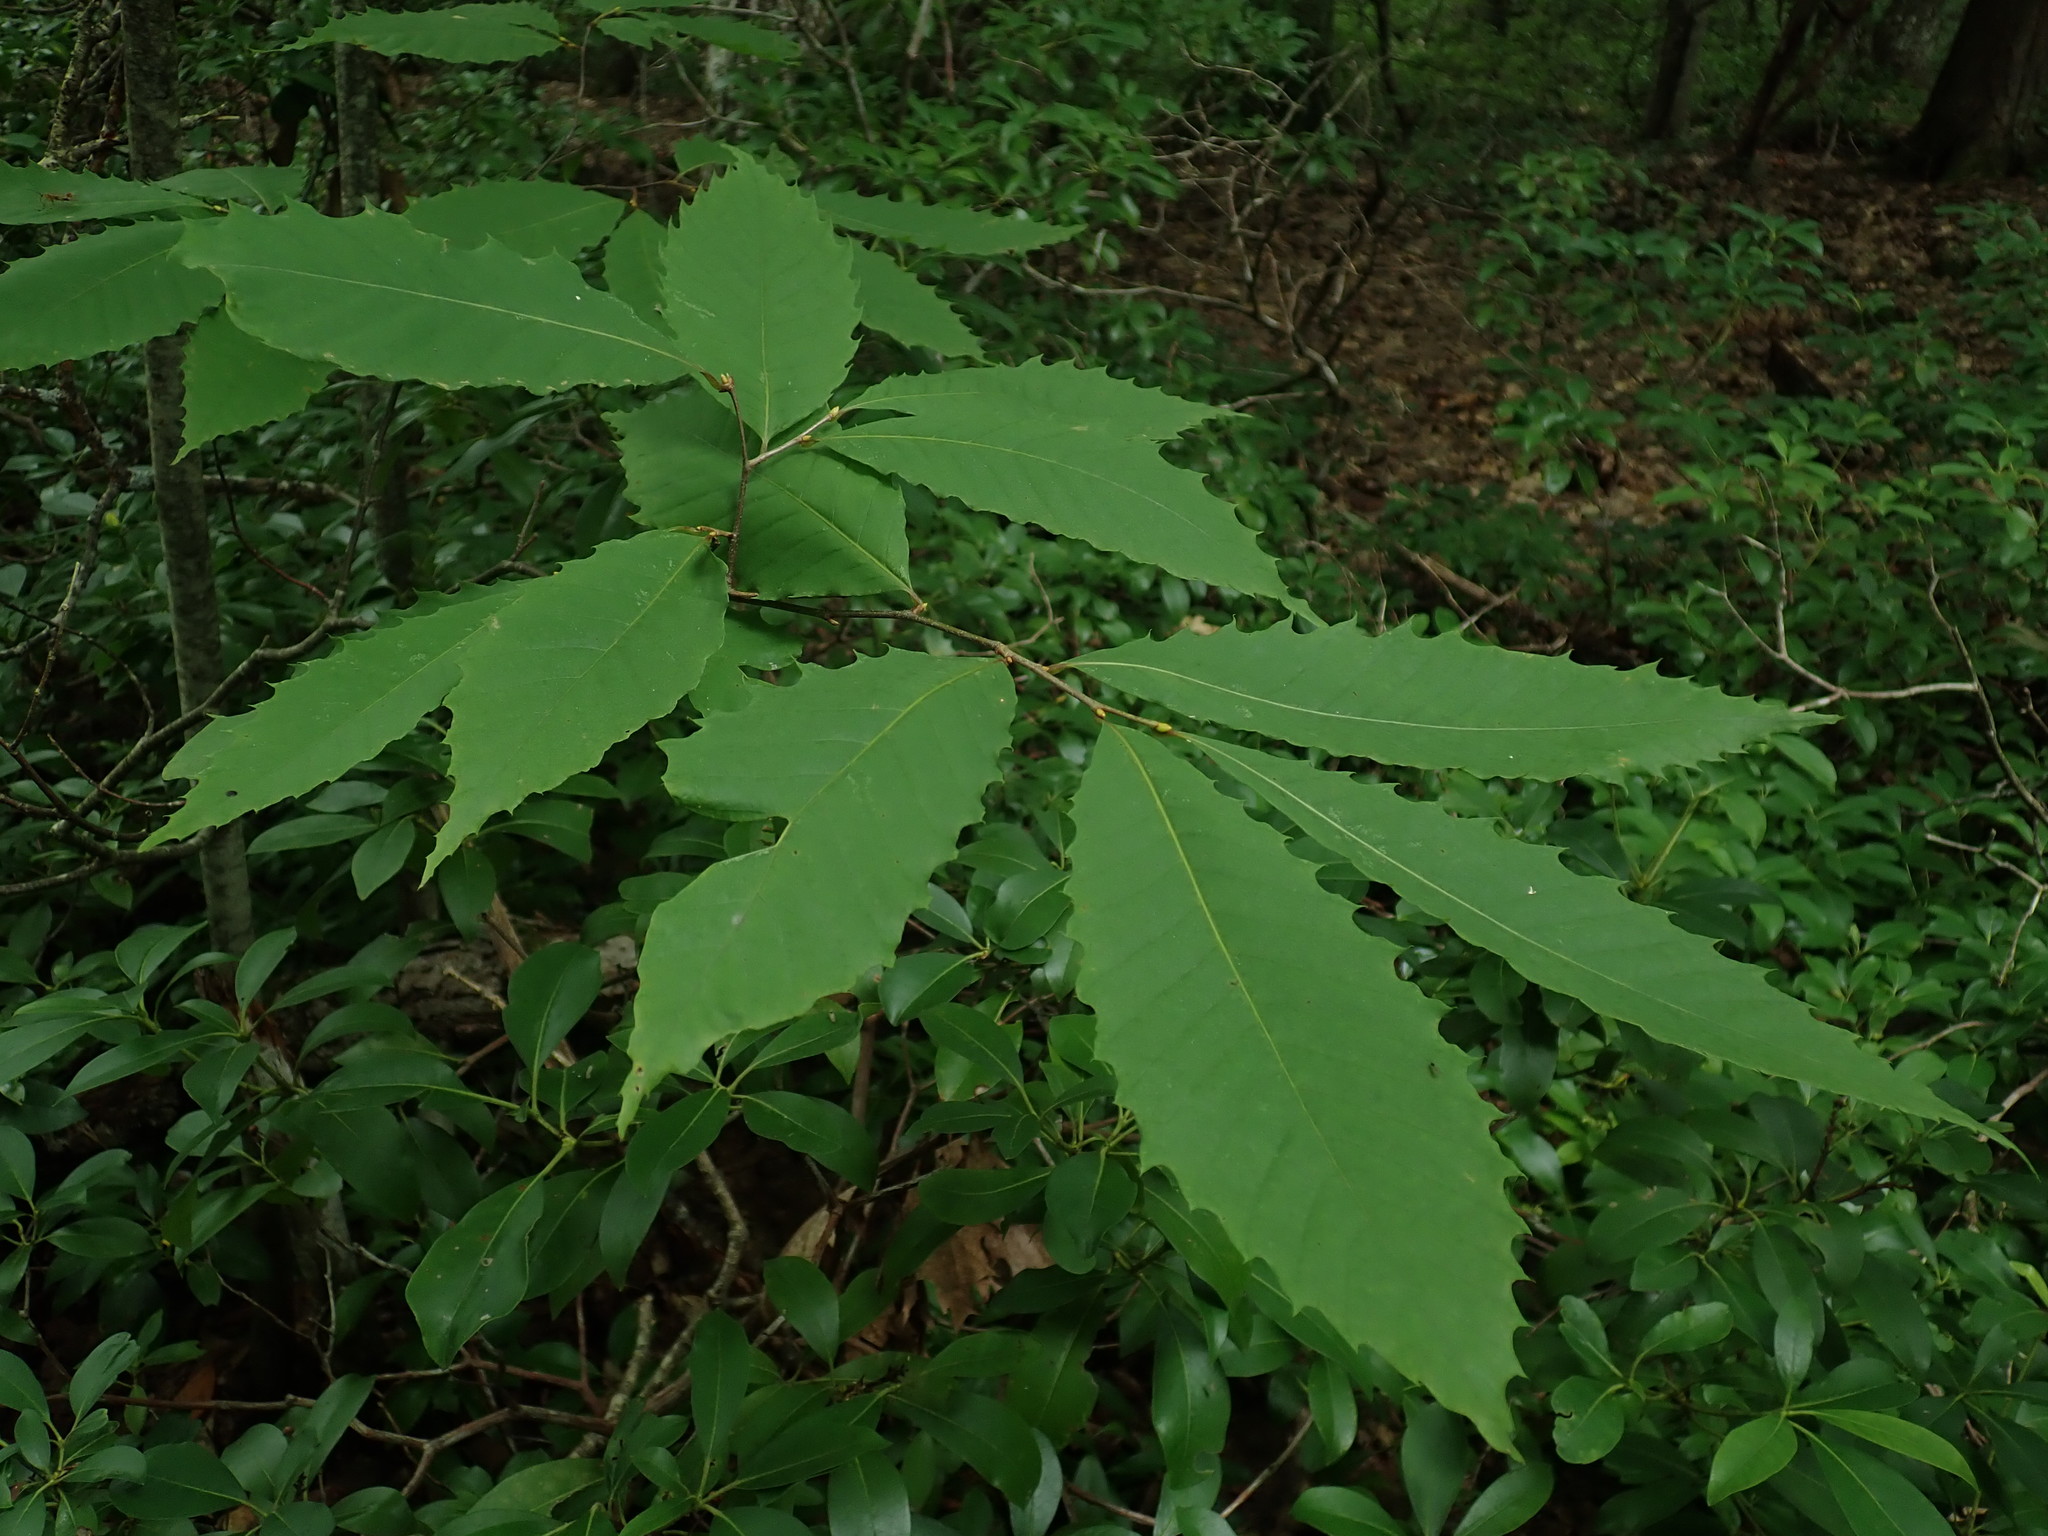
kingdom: Plantae
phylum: Tracheophyta
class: Magnoliopsida
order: Fagales
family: Fagaceae
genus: Castanea
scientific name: Castanea dentata
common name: American chestnut
